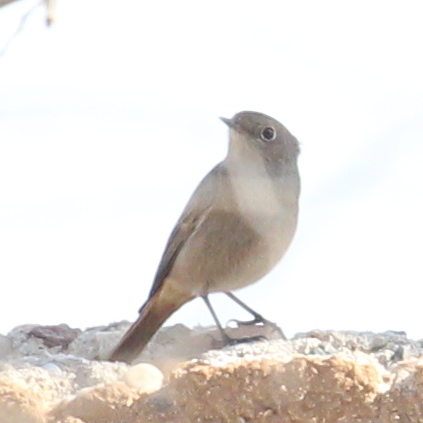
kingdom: Animalia
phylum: Chordata
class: Aves
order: Passeriformes
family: Muscicapidae
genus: Phoenicurus
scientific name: Phoenicurus ochruros
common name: Black redstart
